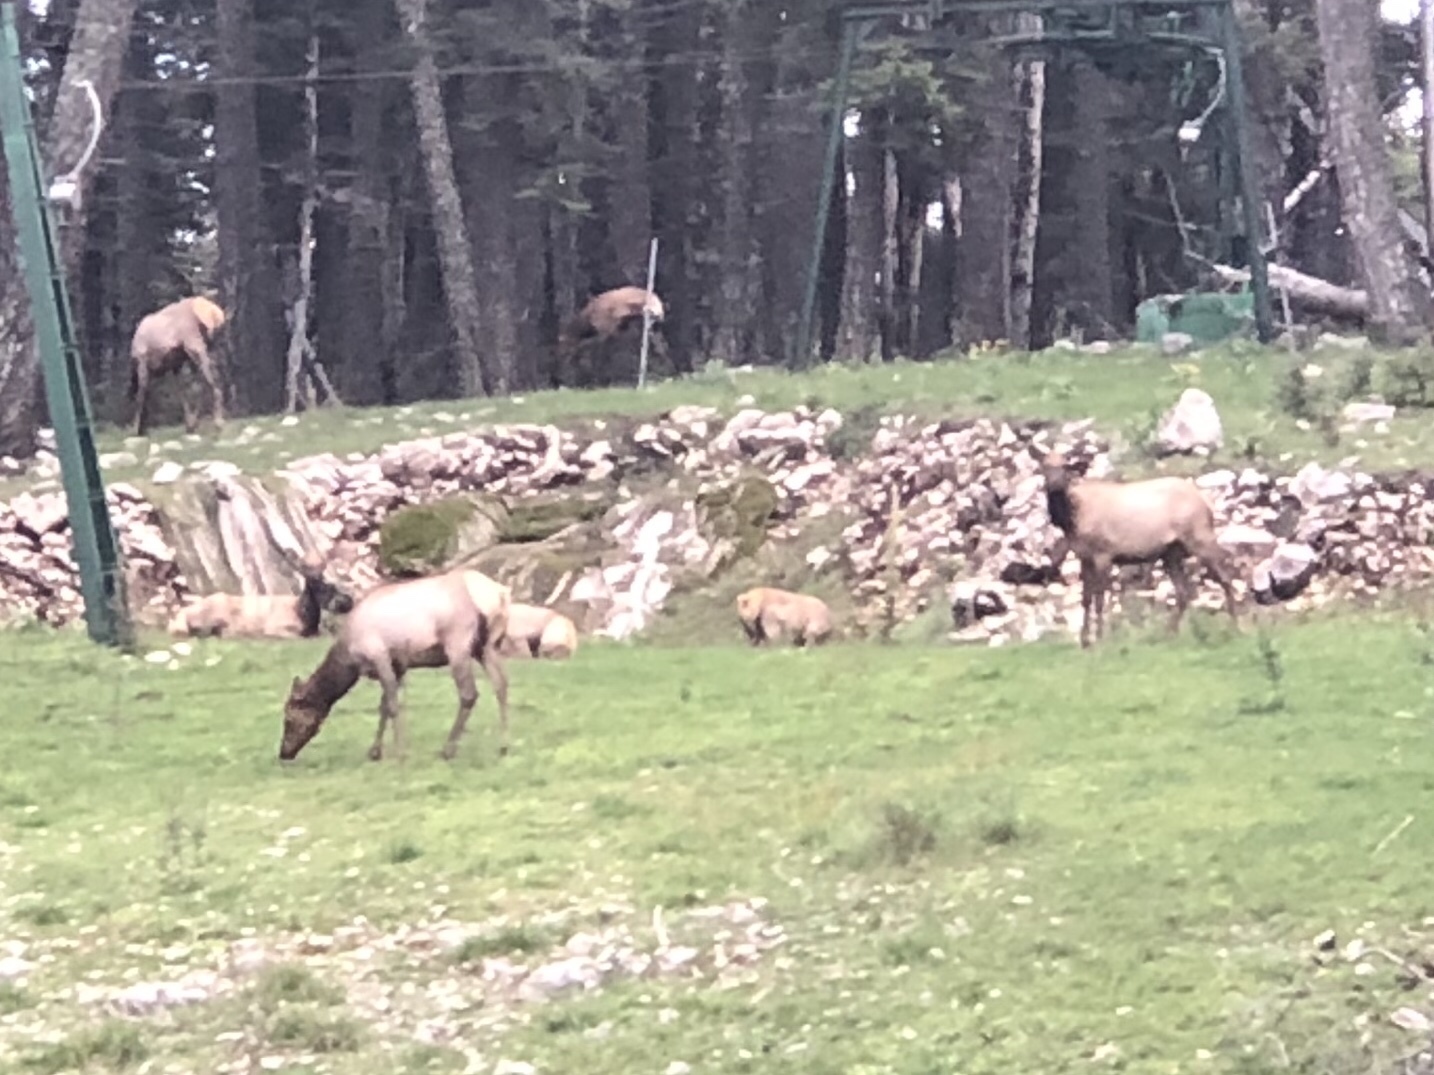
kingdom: Animalia
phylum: Chordata
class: Mammalia
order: Artiodactyla
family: Cervidae
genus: Cervus
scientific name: Cervus elaphus
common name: Red deer
